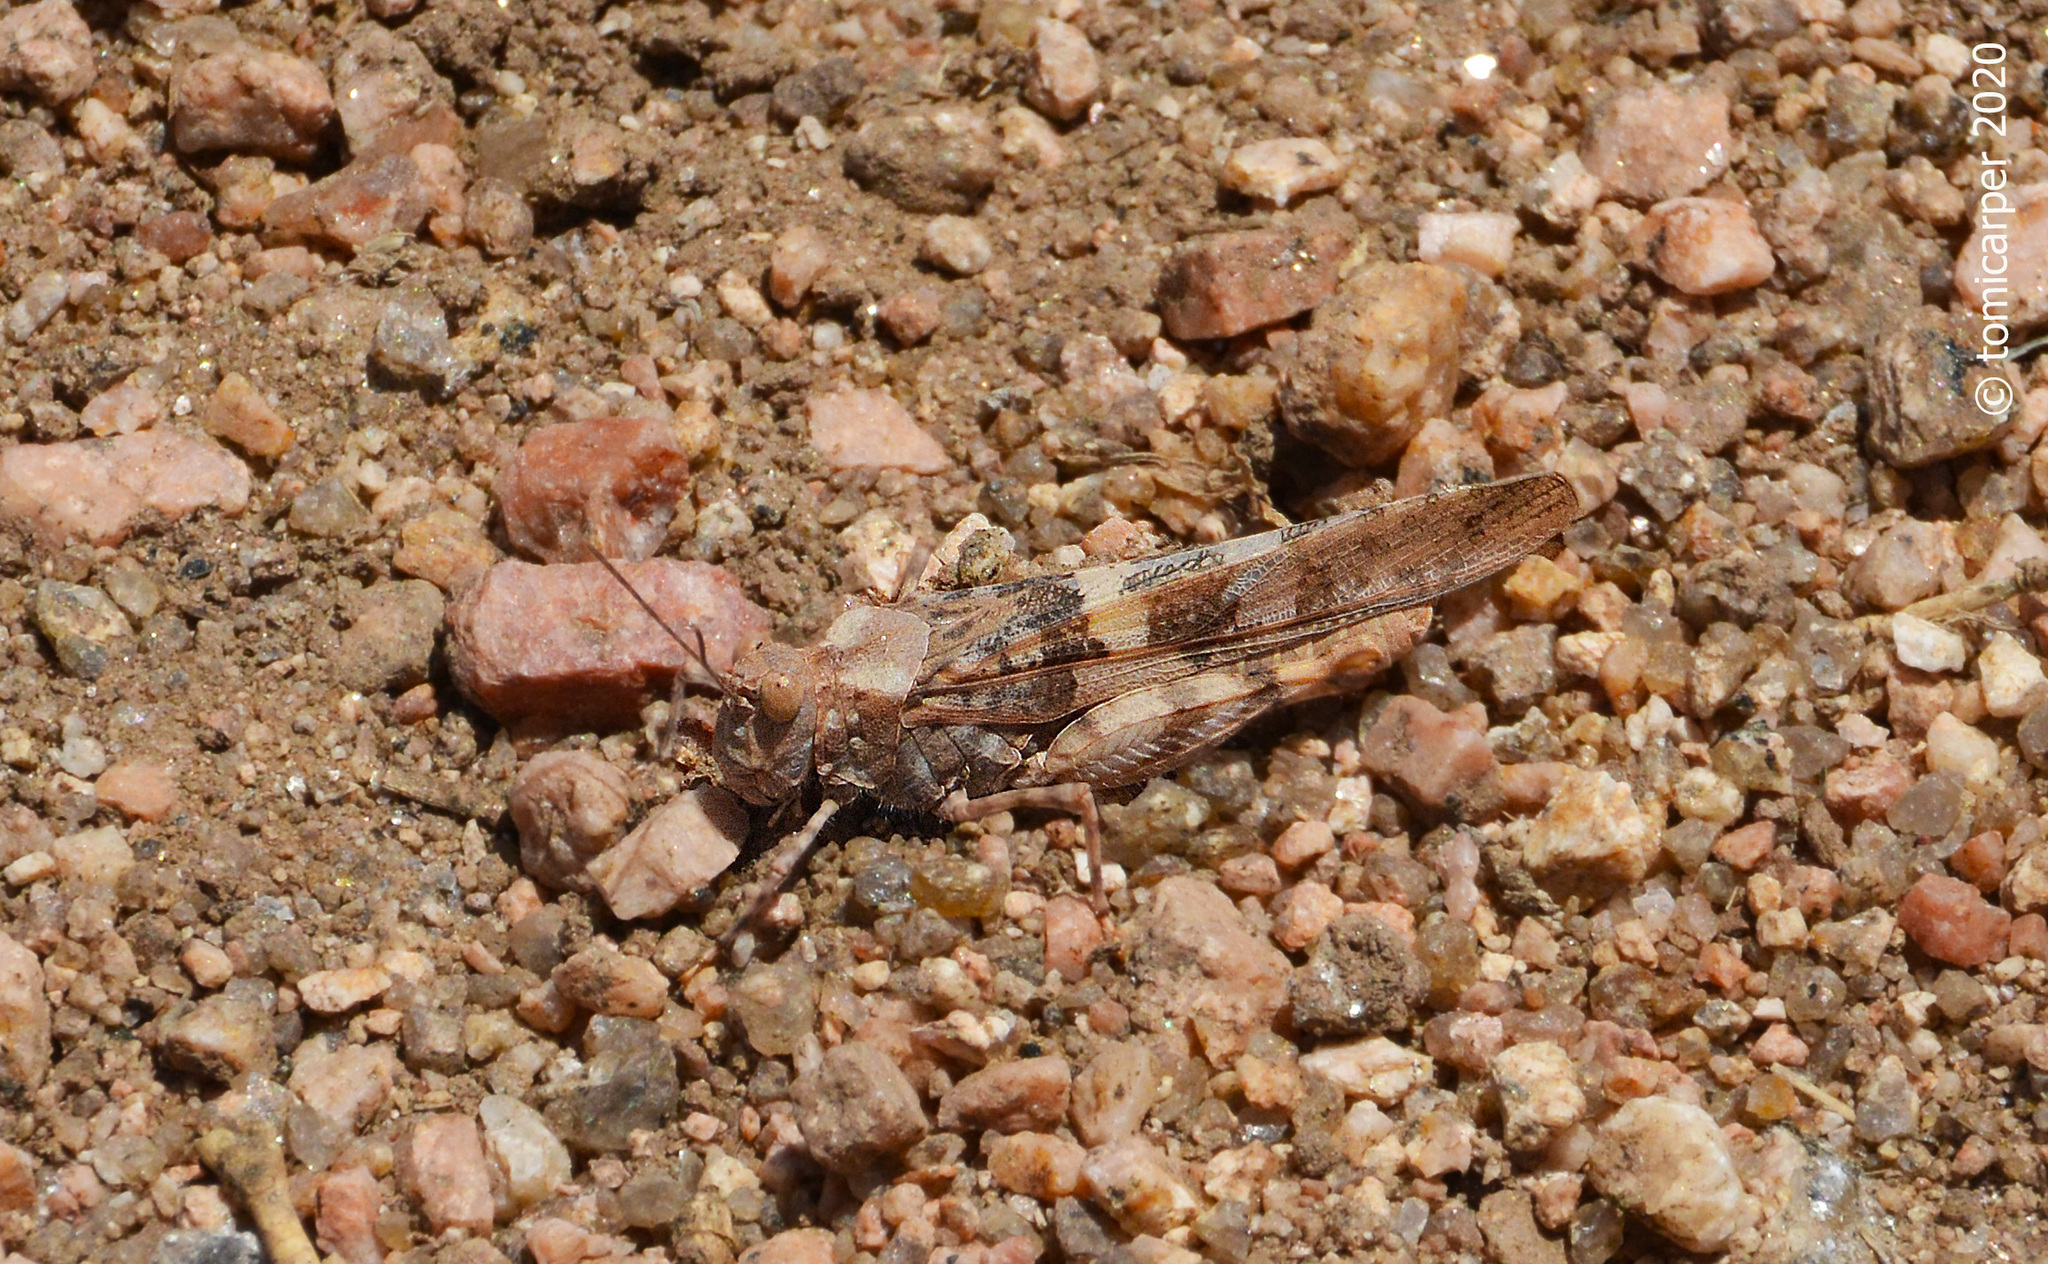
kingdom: Animalia
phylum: Arthropoda
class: Insecta
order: Orthoptera
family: Acrididae
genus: Trimerotropis
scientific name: Trimerotropis pallidipennis
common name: Pallid-winged grasshopper
